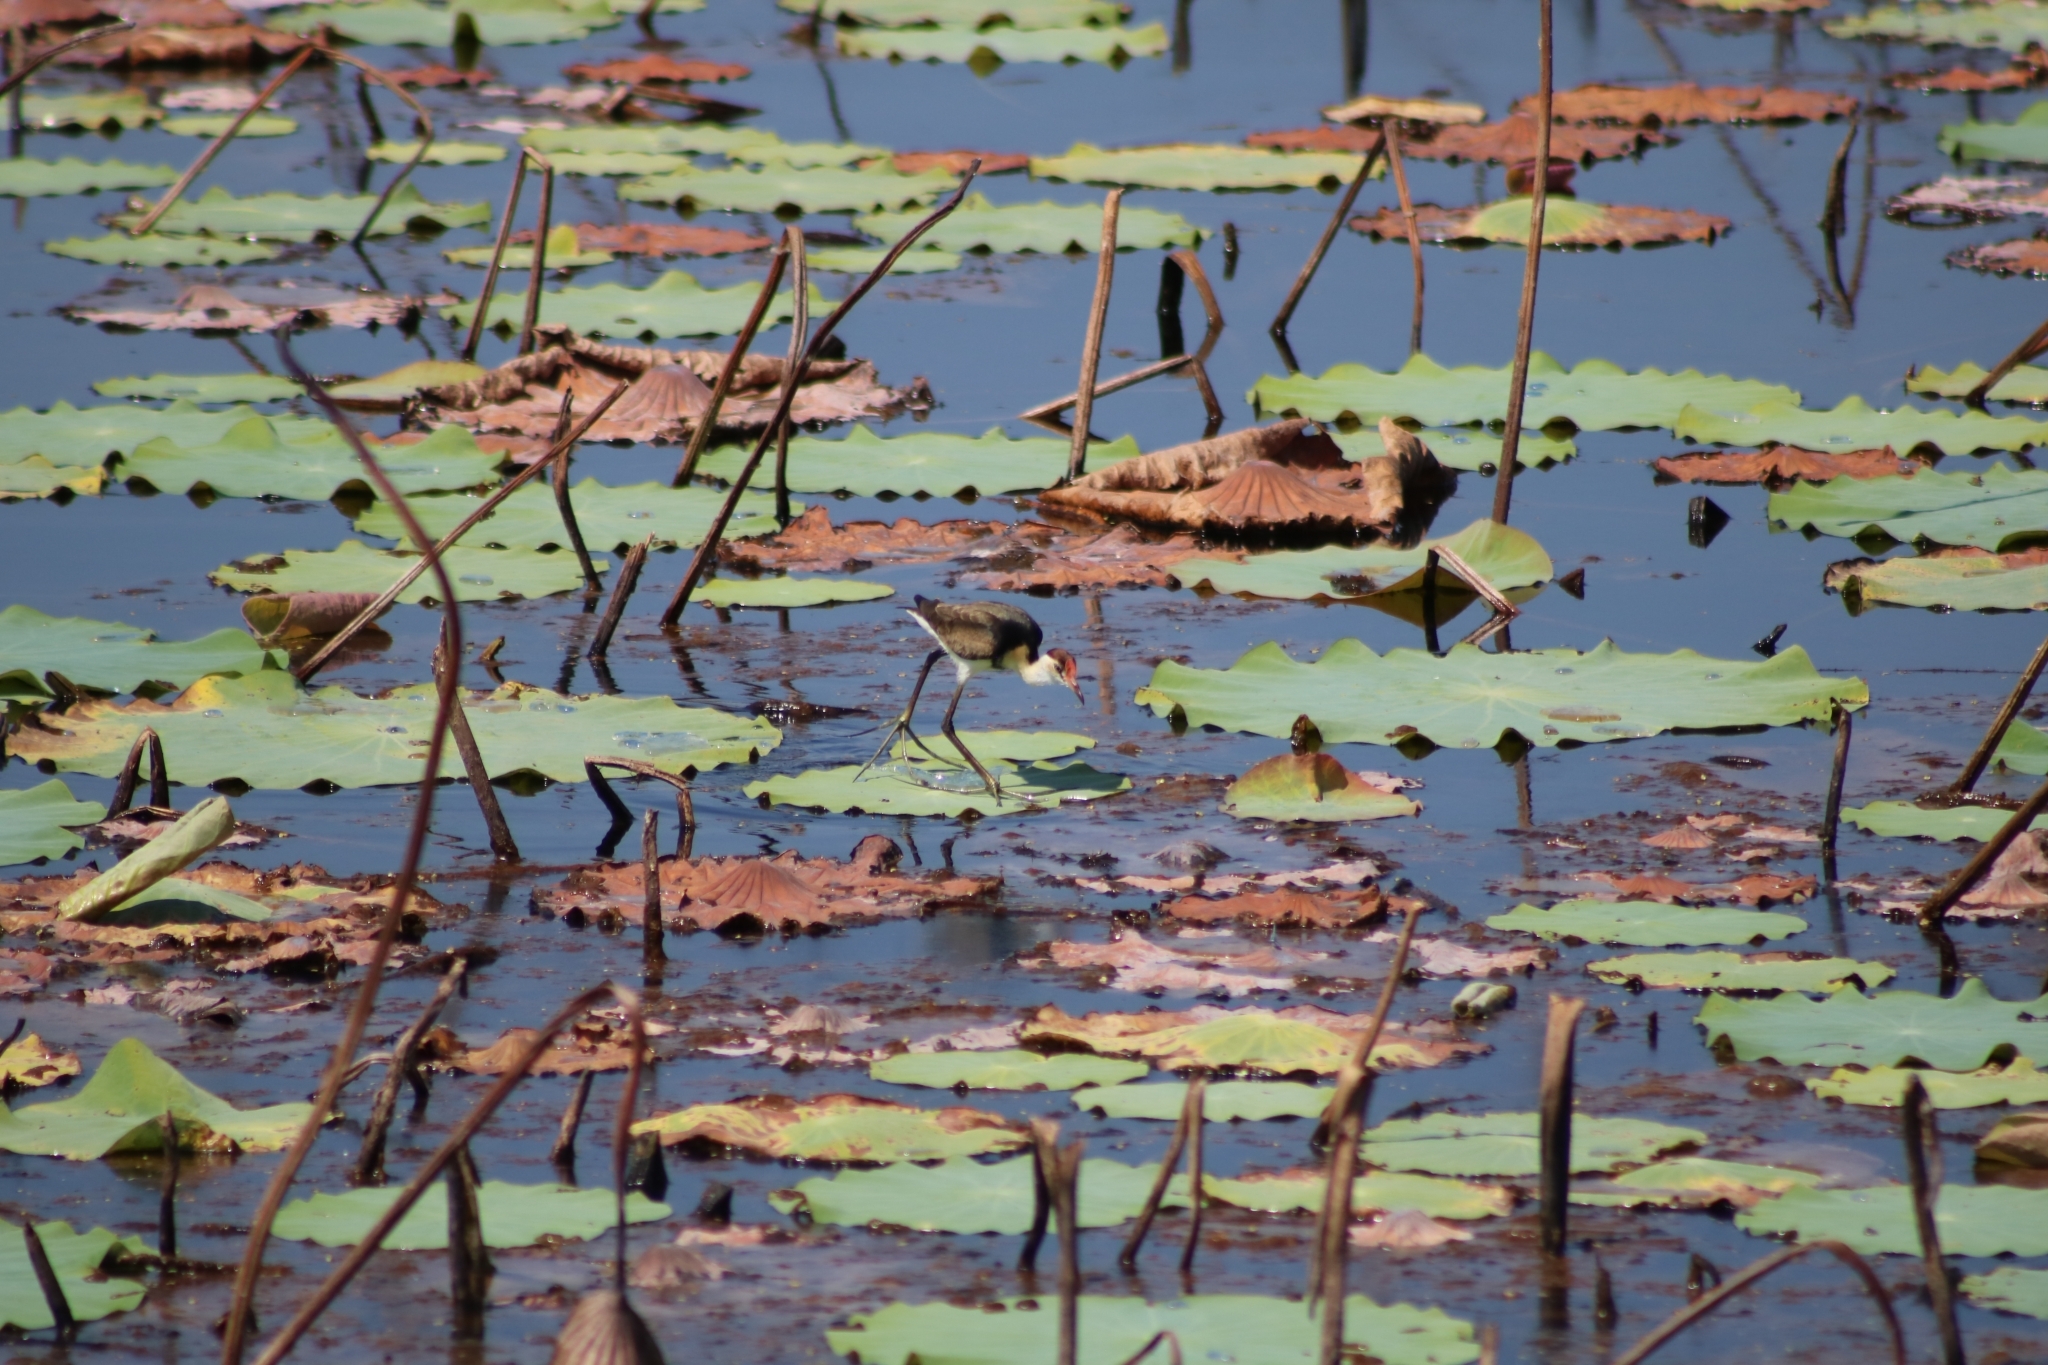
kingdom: Animalia
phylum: Chordata
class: Aves
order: Charadriiformes
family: Jacanidae
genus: Irediparra
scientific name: Irediparra gallinacea
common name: Comb-crested jacana
